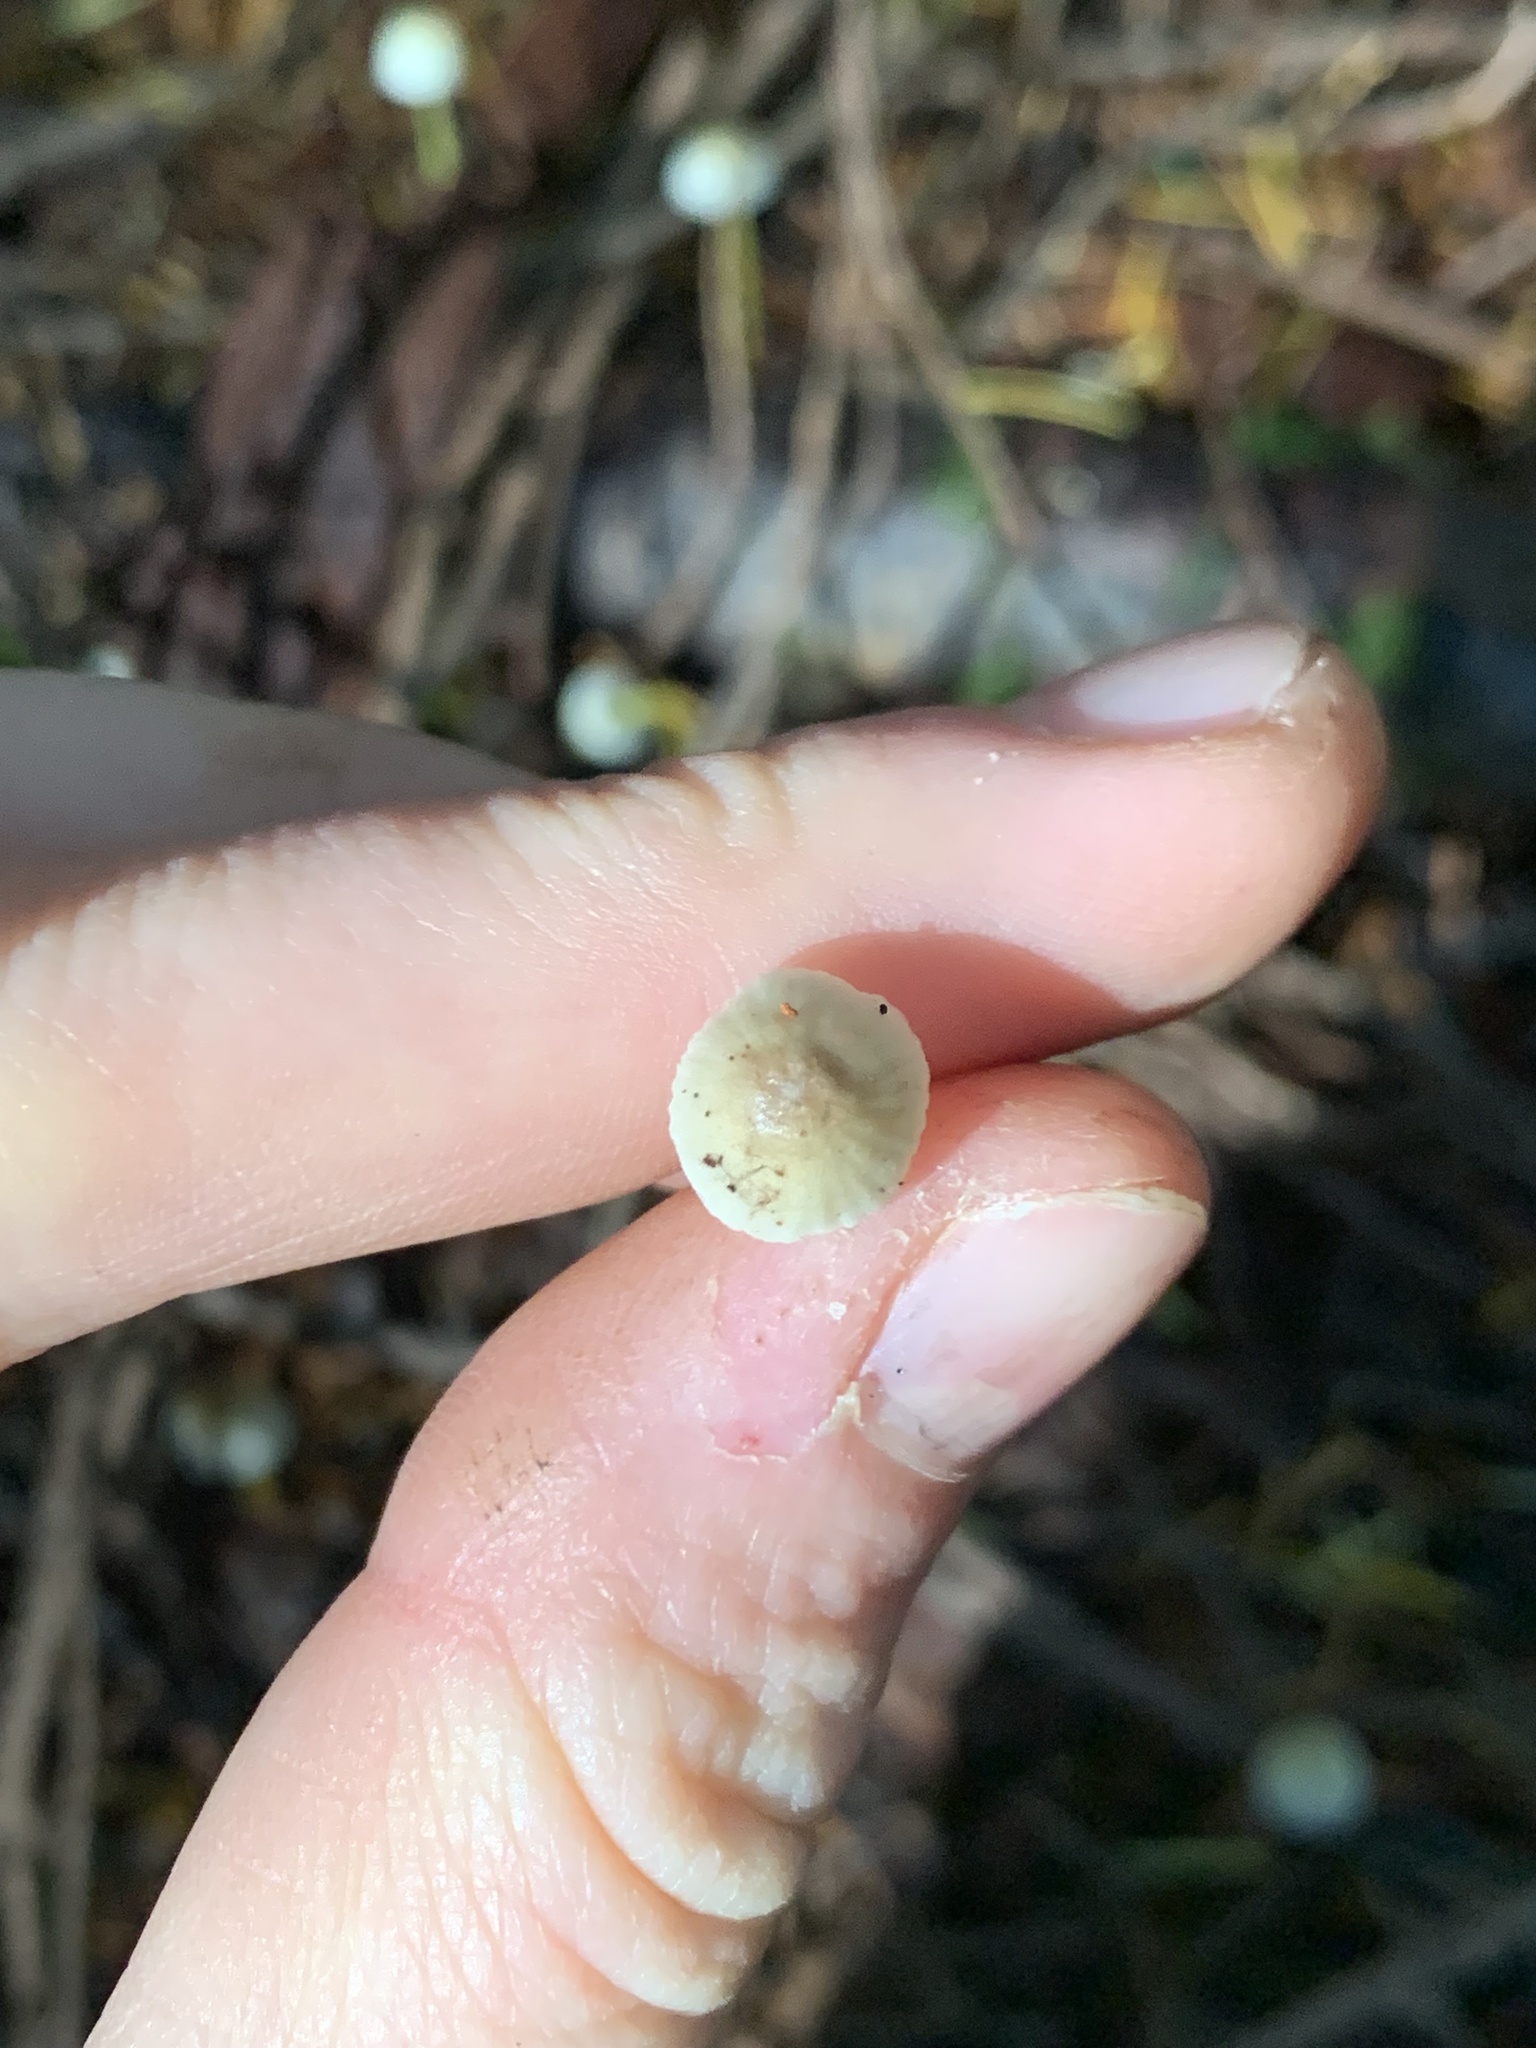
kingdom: Fungi
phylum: Basidiomycota
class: Agaricomycetes
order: Agaricales
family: Mycenaceae
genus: Mycena
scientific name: Mycena epipterygia
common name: Yellowleg bonnet
